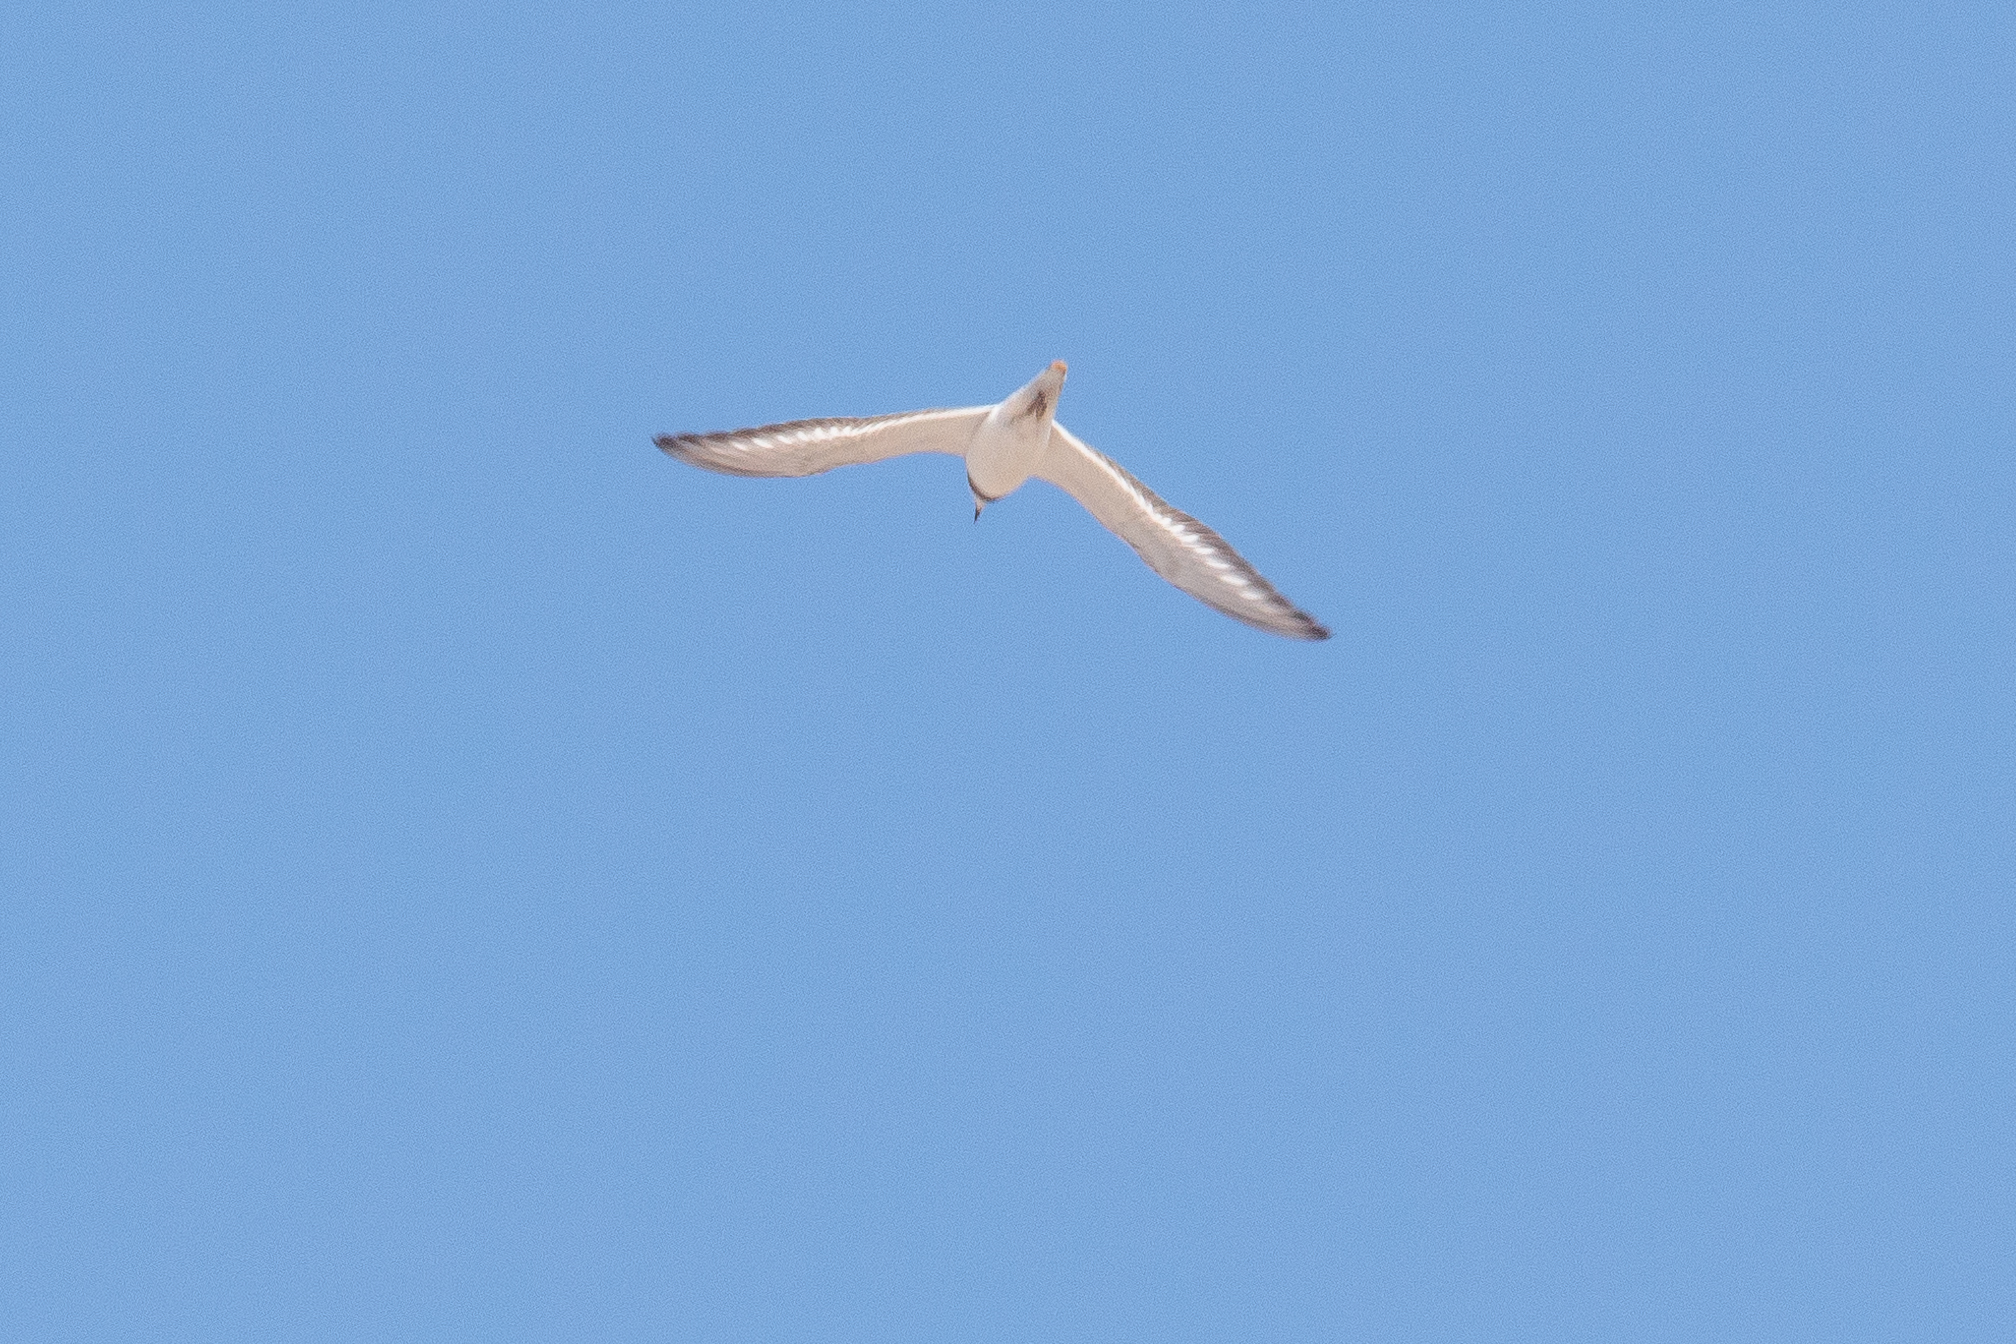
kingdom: Animalia
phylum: Chordata
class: Aves
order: Charadriiformes
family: Charadriidae
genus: Charadrius
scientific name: Charadrius vociferus
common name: Killdeer
